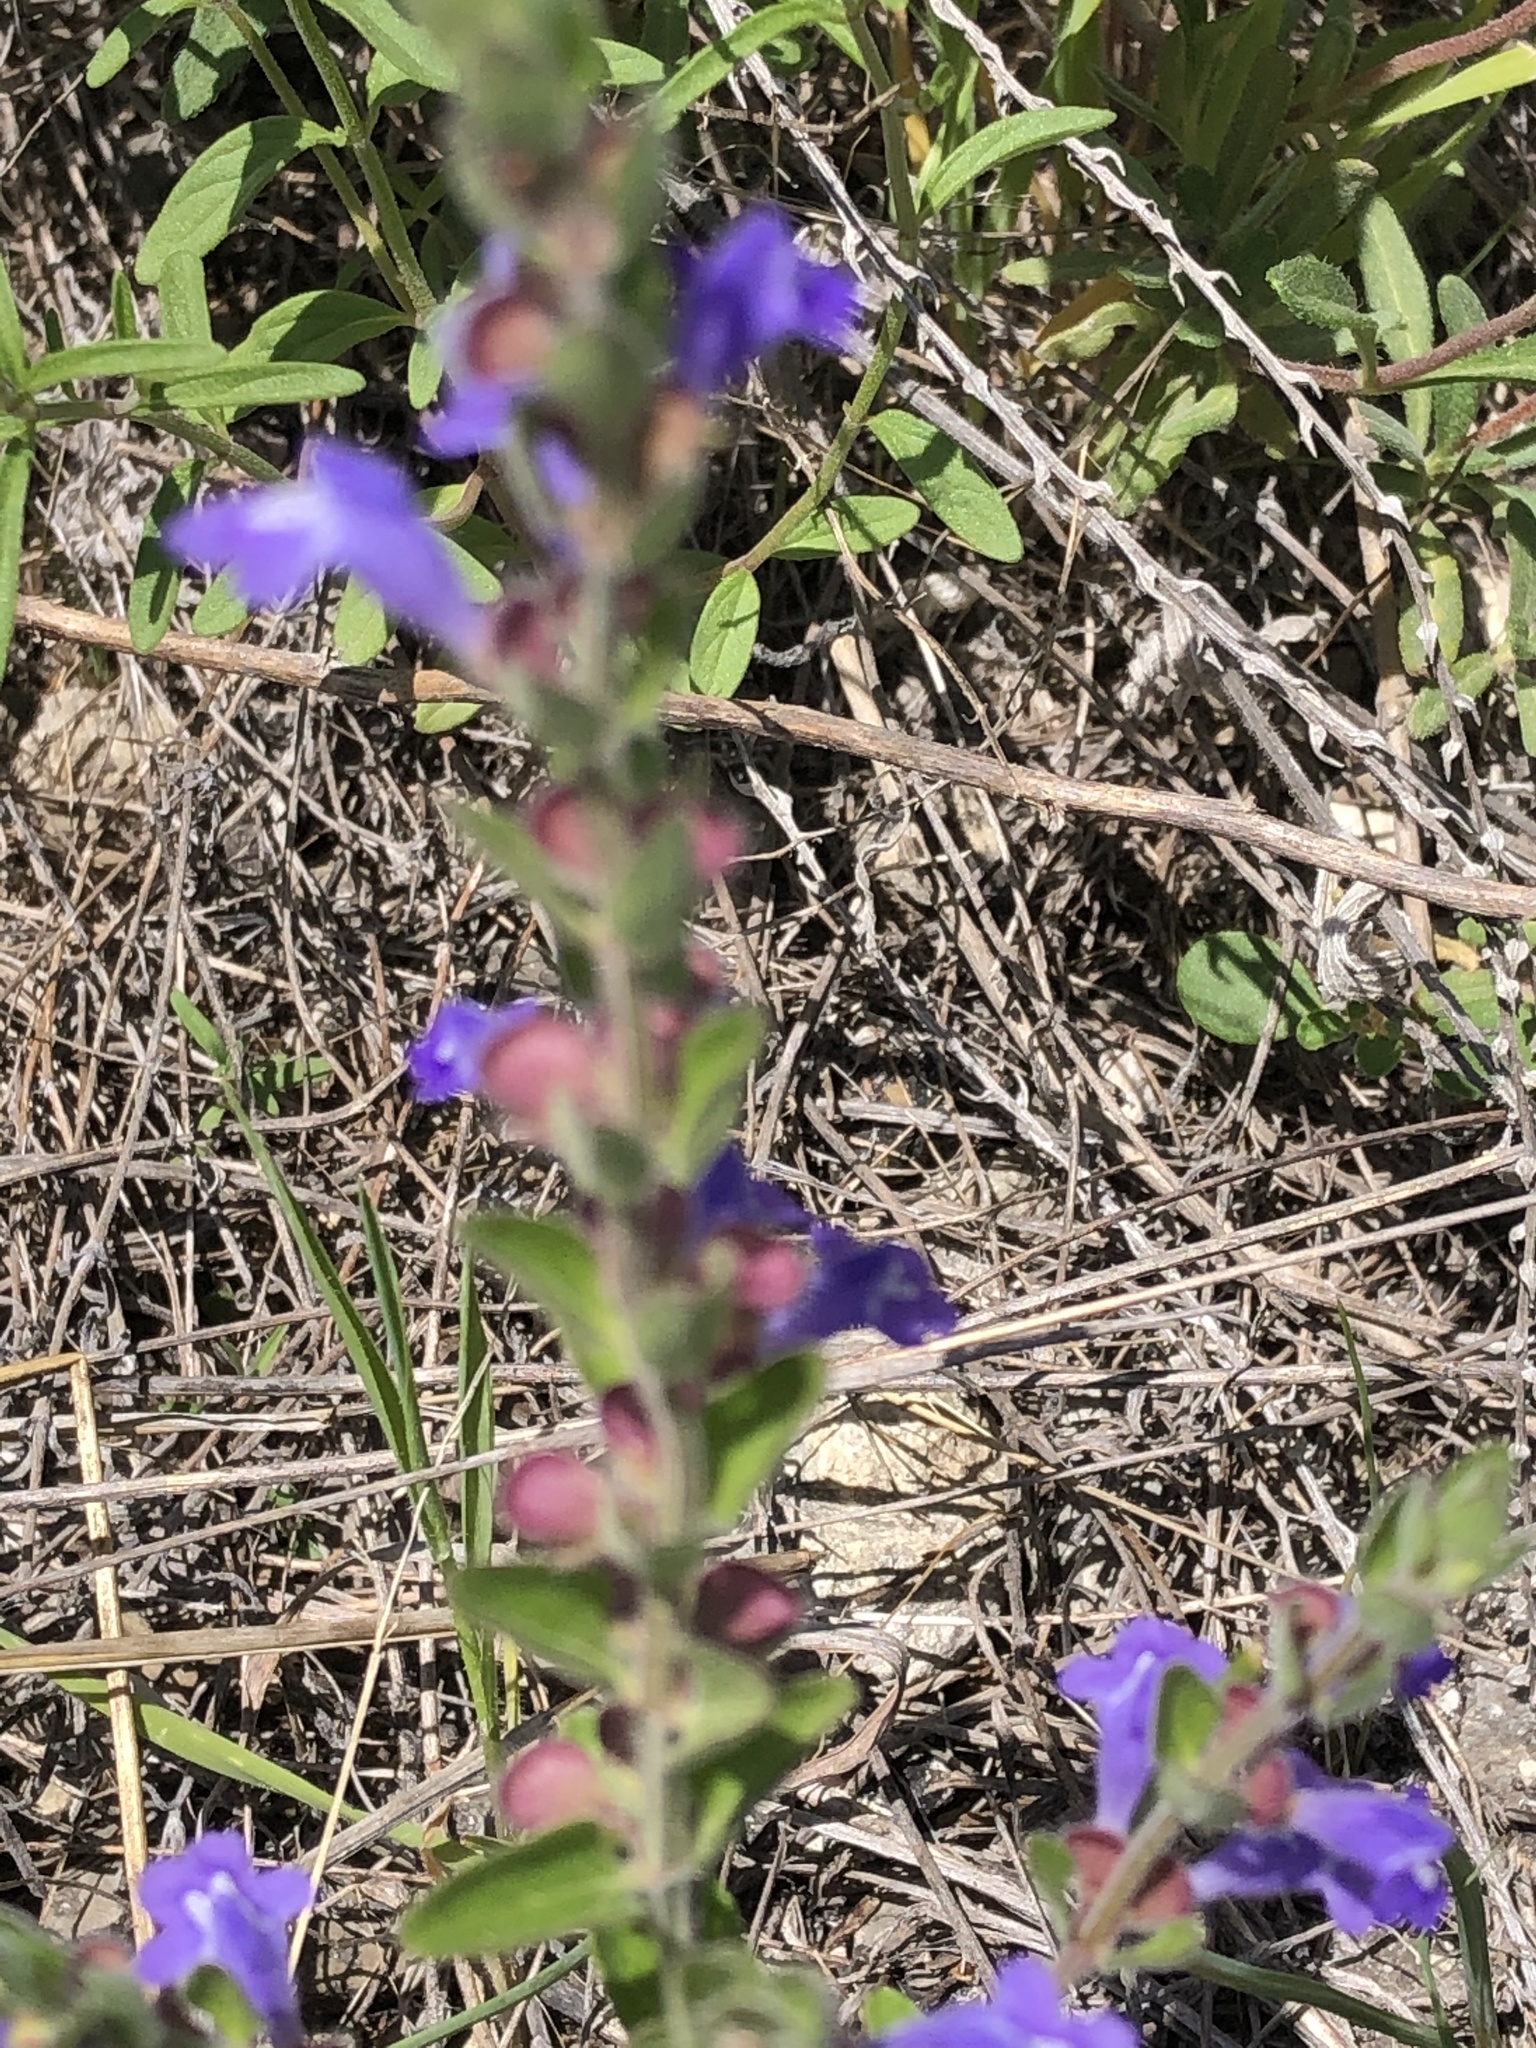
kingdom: Plantae
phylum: Tracheophyta
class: Magnoliopsida
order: Lamiales
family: Lamiaceae
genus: Scutellaria
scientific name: Scutellaria drummondii
